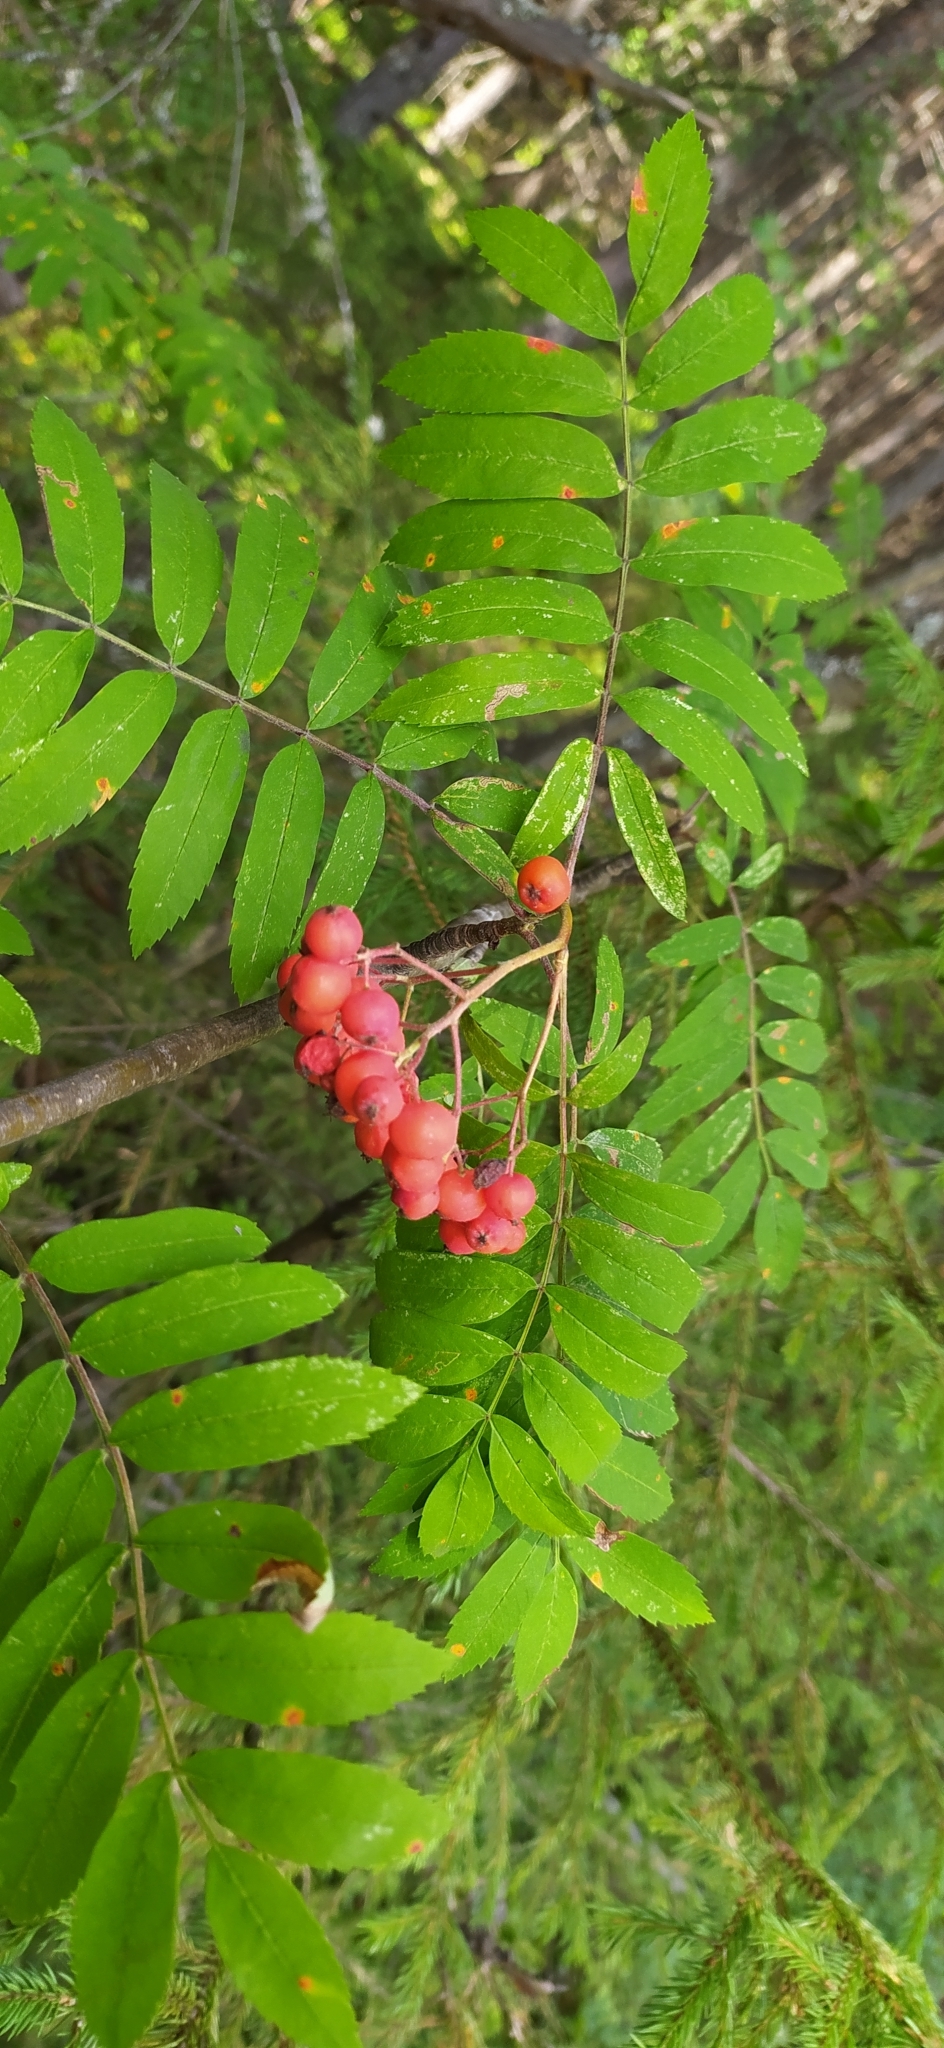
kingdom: Plantae
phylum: Tracheophyta
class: Magnoliopsida
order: Rosales
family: Rosaceae
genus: Sorbus
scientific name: Sorbus aucuparia
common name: Rowan
